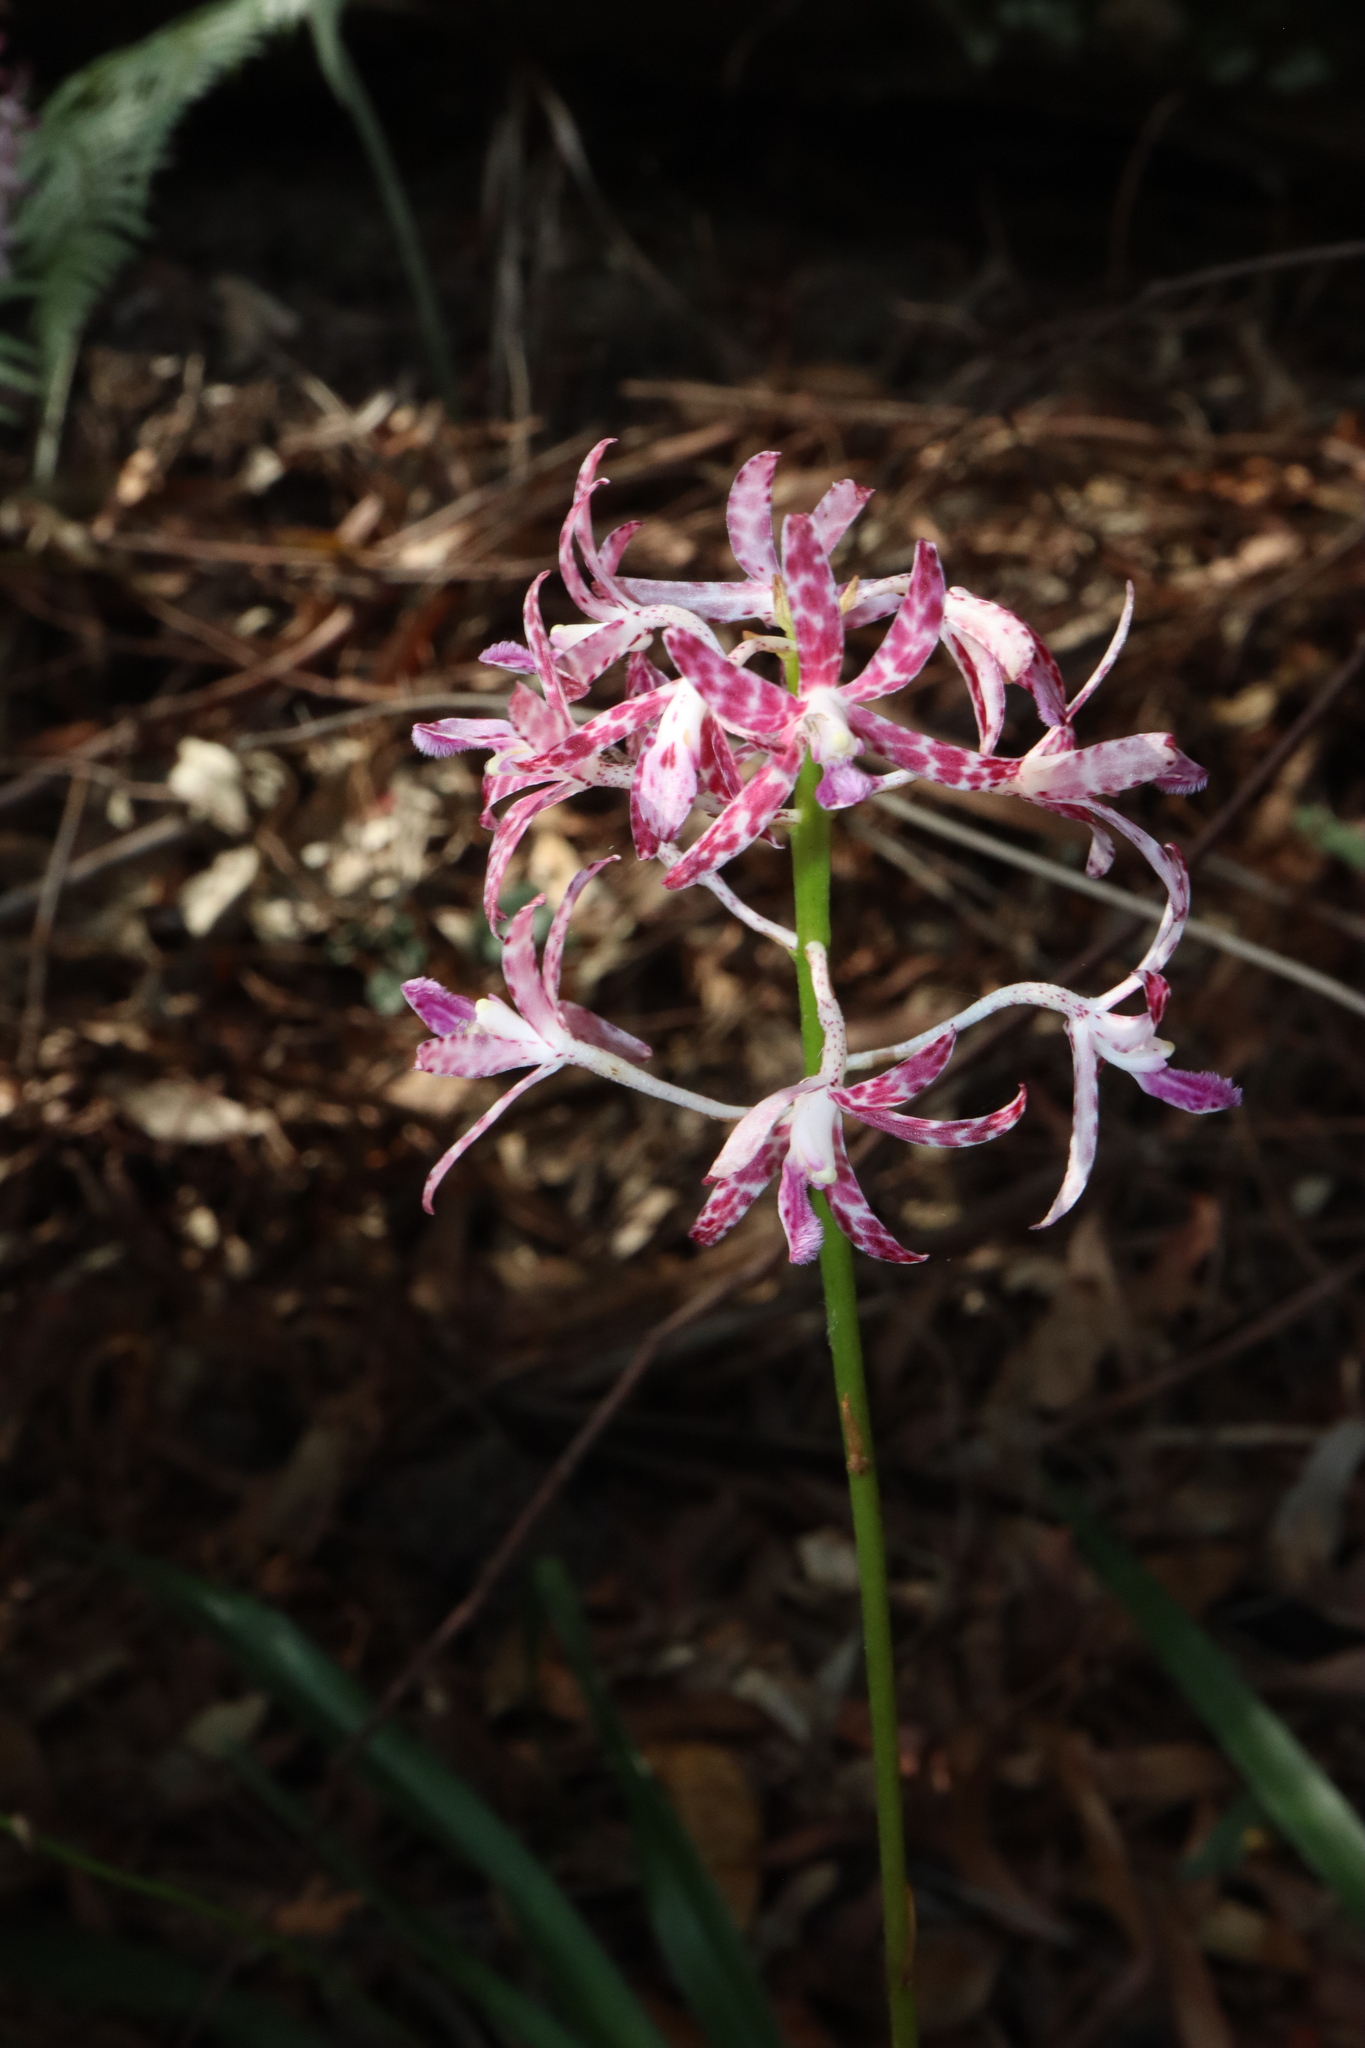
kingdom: Plantae
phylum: Tracheophyta
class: Liliopsida
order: Asparagales
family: Orchidaceae
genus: Dipodium
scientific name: Dipodium variegatum
